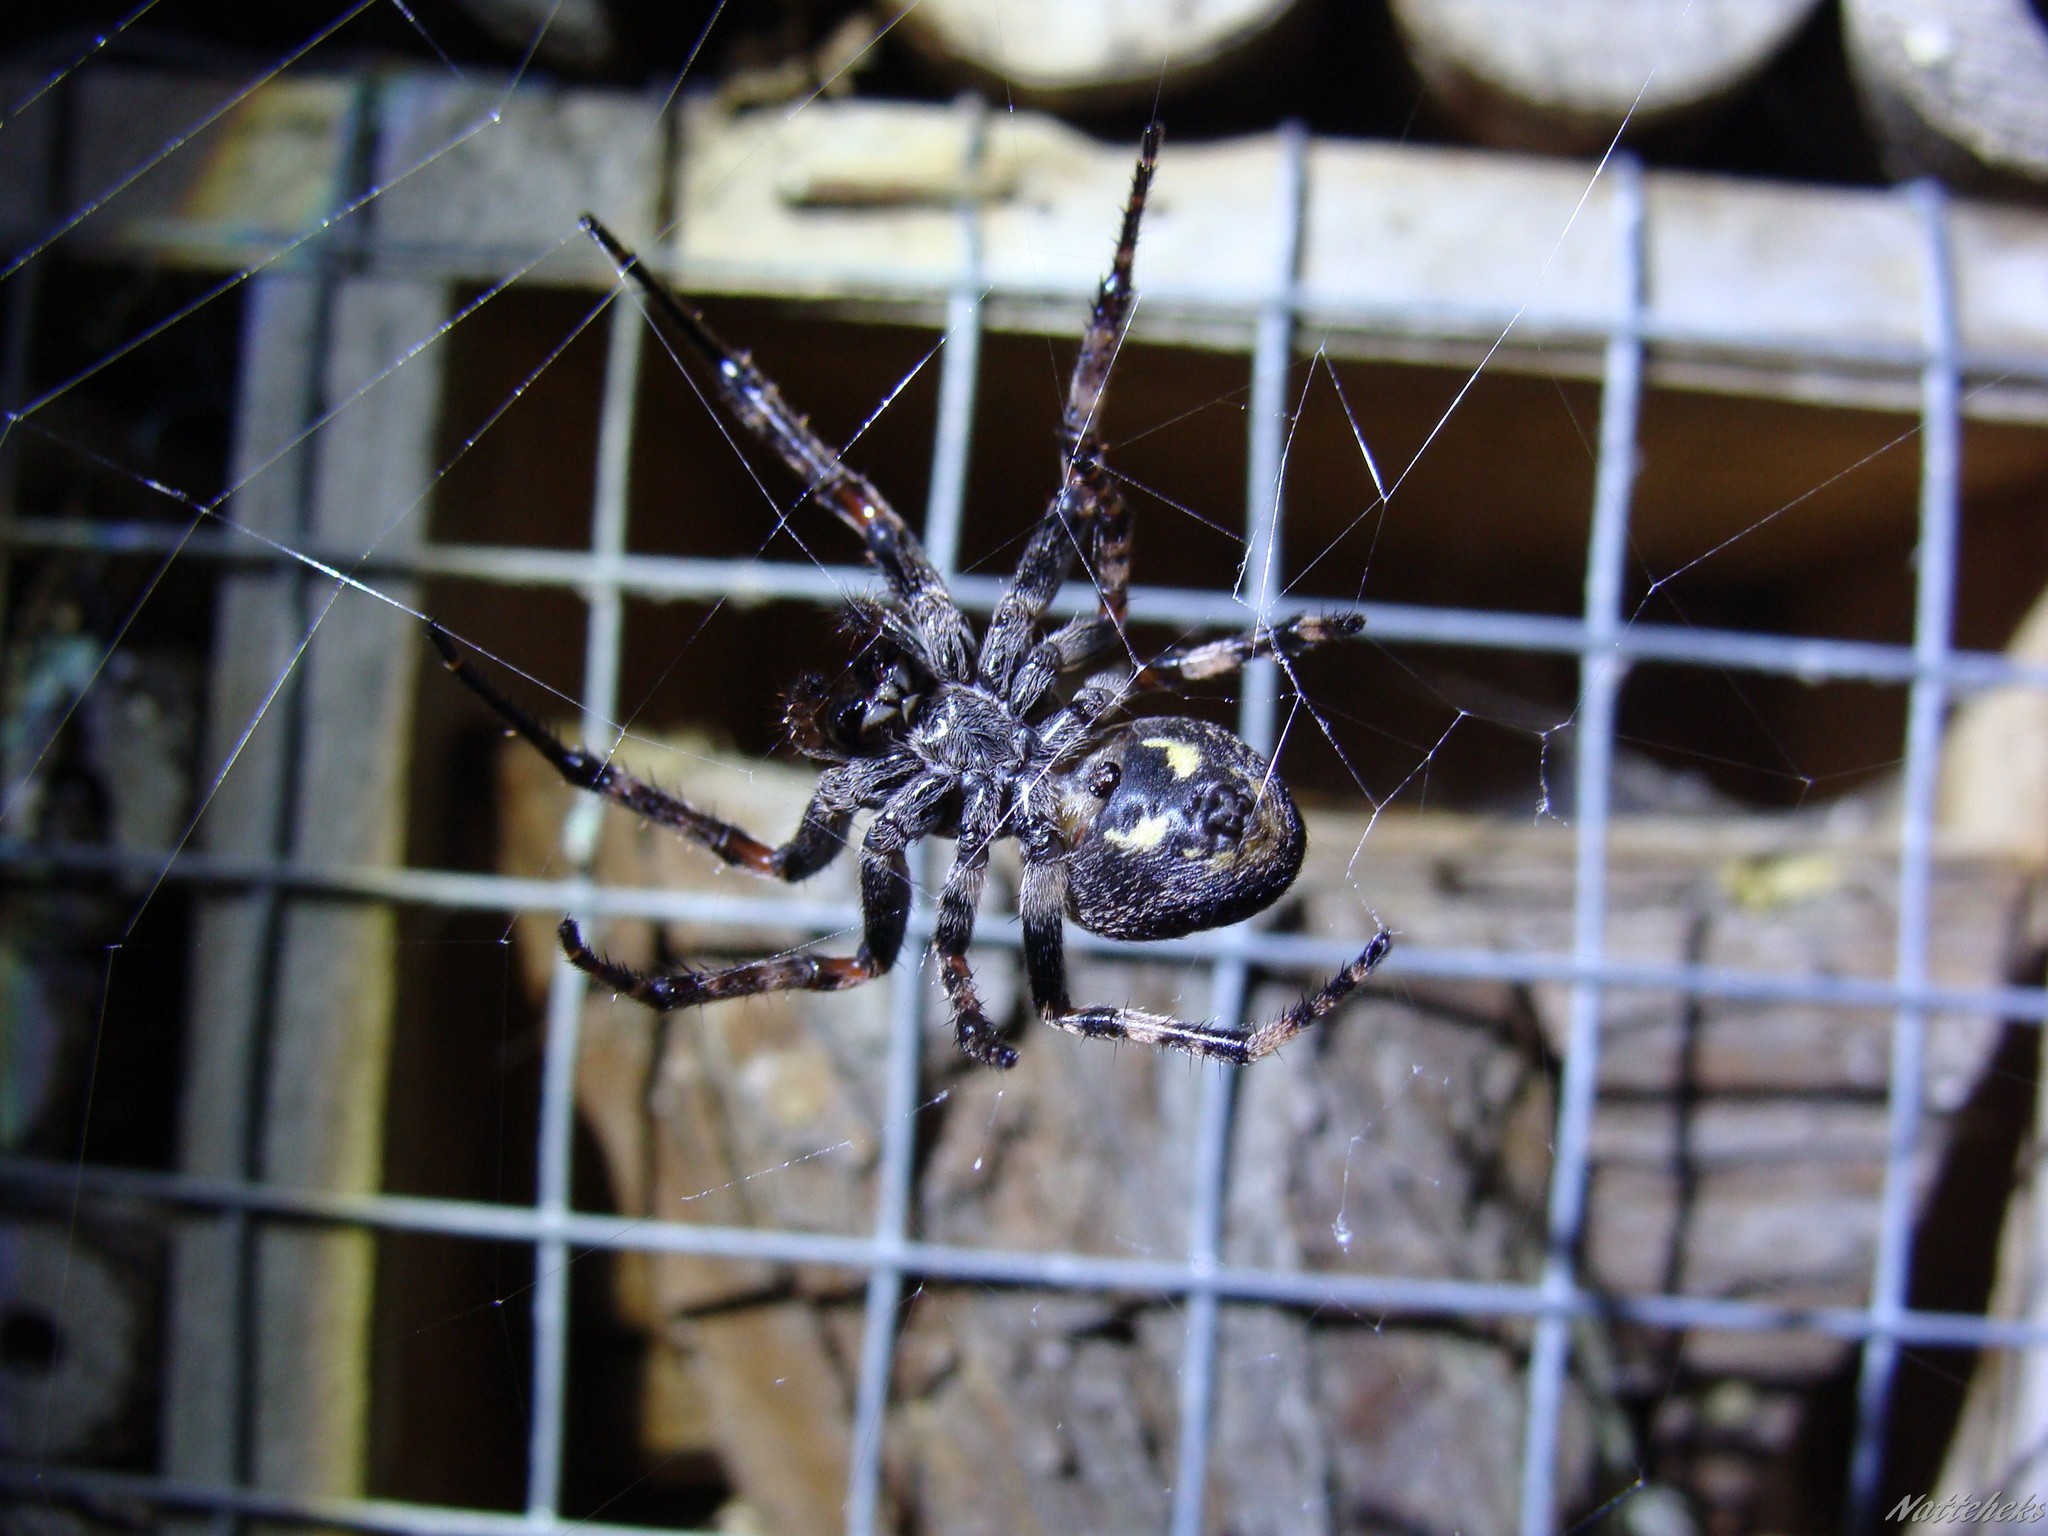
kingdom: Animalia
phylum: Arthropoda
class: Arachnida
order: Araneae
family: Araneidae
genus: Nuctenea
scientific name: Nuctenea umbratica
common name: Toad spider
